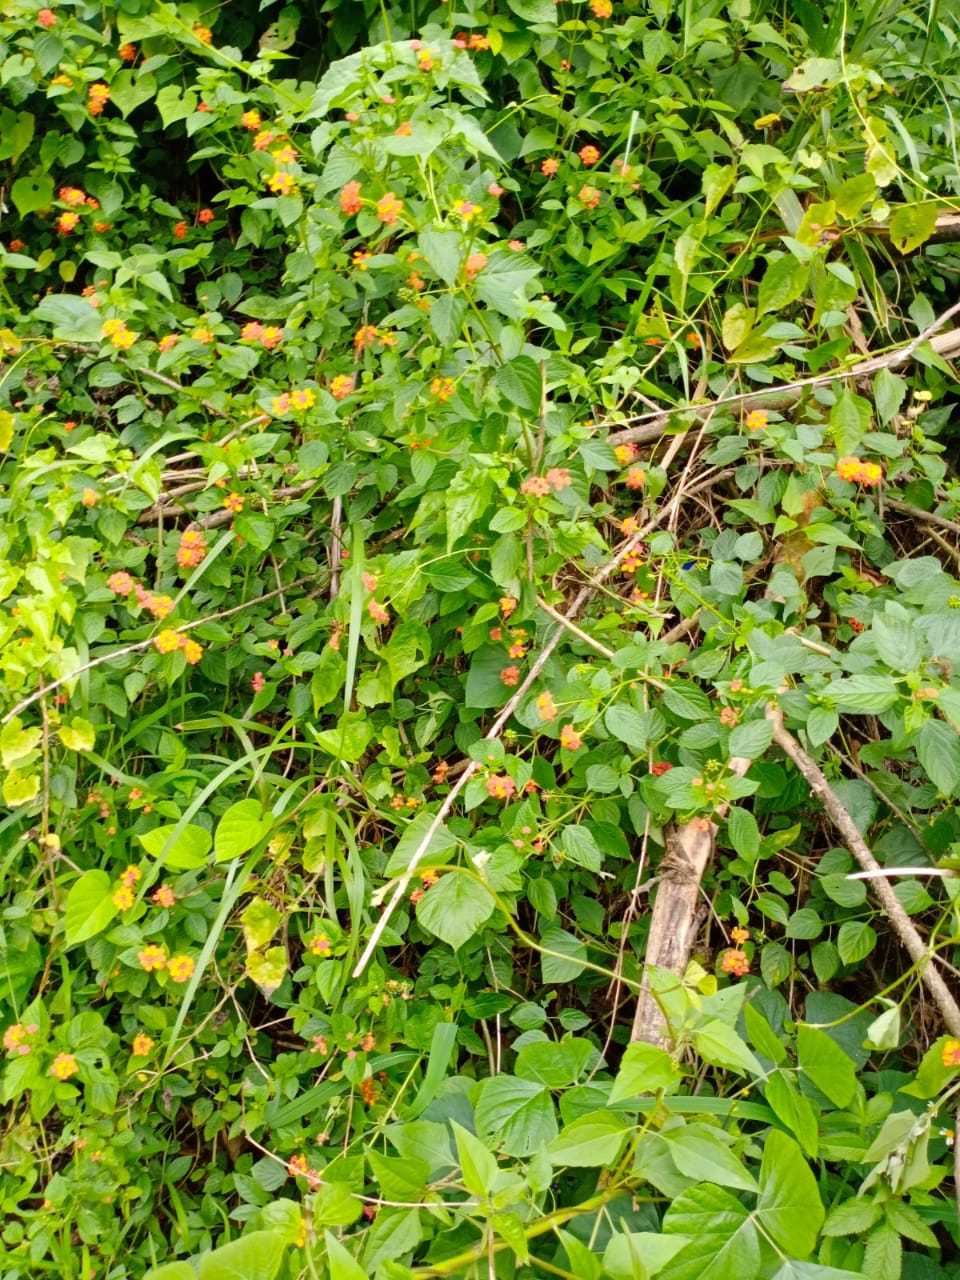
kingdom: Plantae
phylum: Tracheophyta
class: Magnoliopsida
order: Lamiales
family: Verbenaceae
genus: Lantana
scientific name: Lantana camara
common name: Lantana
